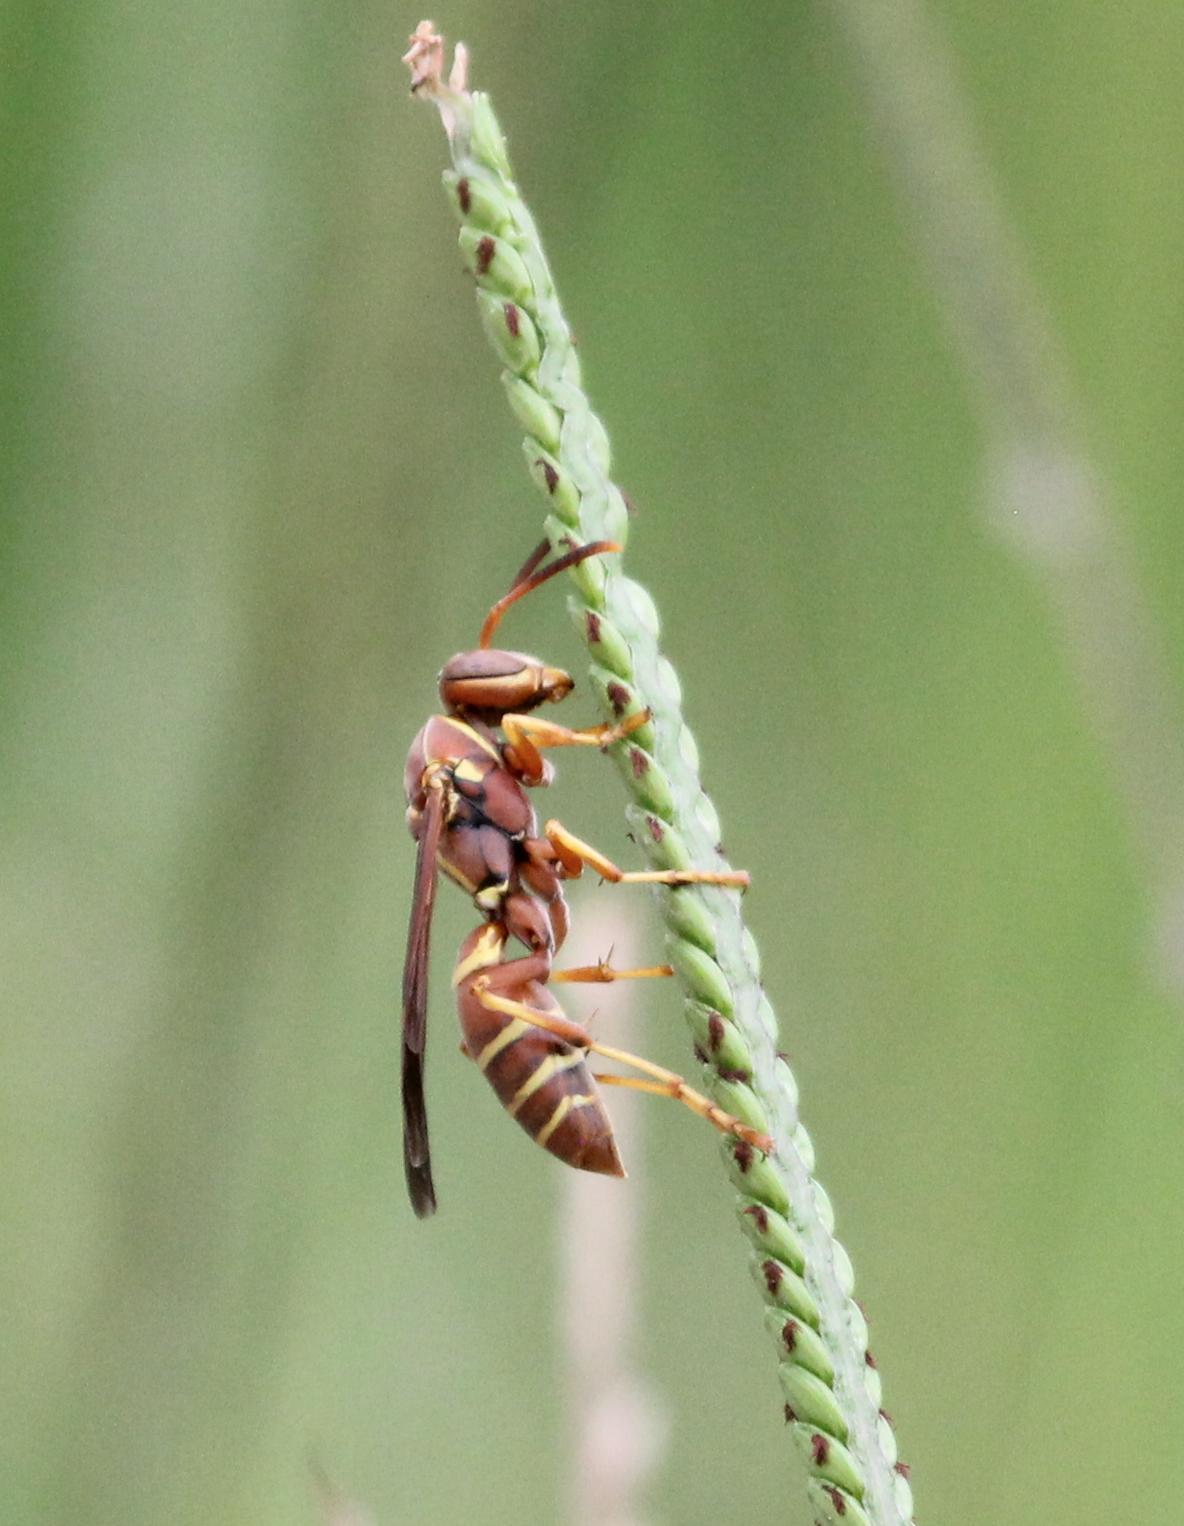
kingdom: Animalia
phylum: Arthropoda
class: Insecta
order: Hymenoptera
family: Eumenidae
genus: Polistes
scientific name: Polistes dorsalis
